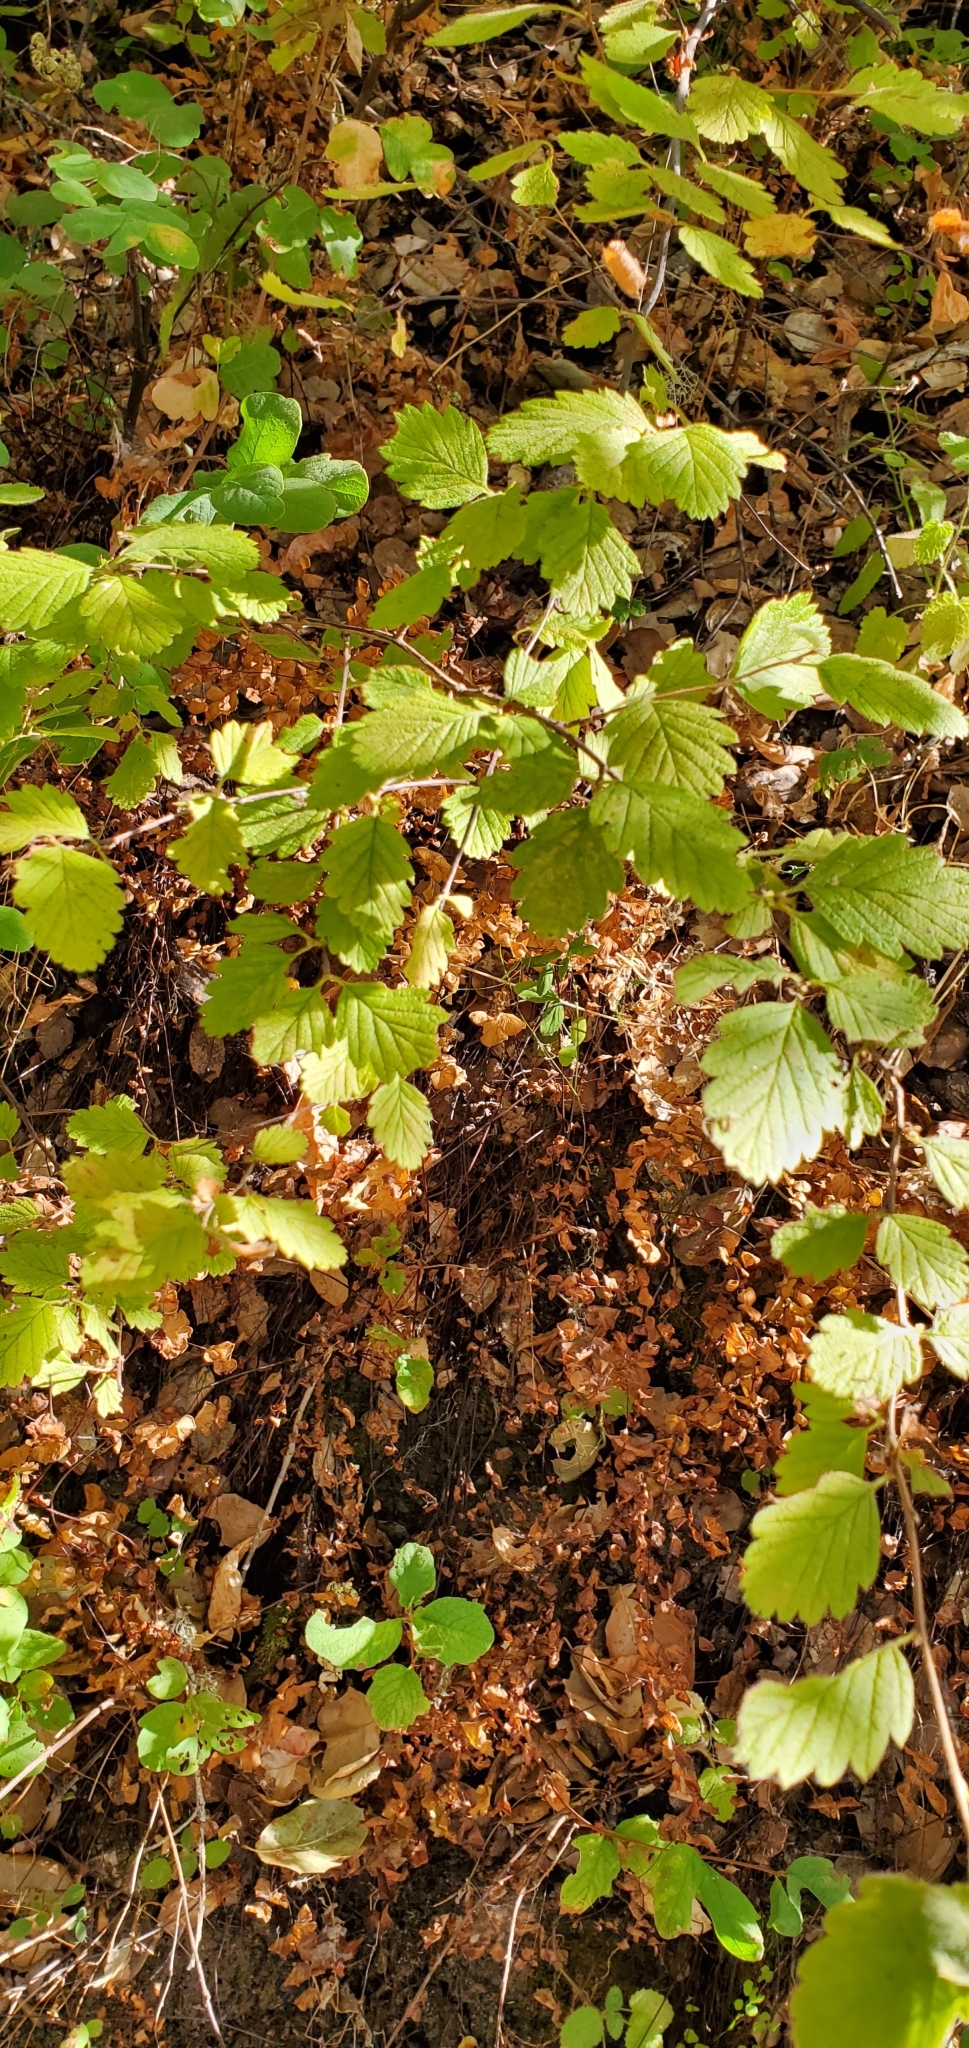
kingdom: Plantae
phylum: Tracheophyta
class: Magnoliopsida
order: Rosales
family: Rosaceae
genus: Holodiscus
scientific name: Holodiscus discolor
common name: Oceanspray
